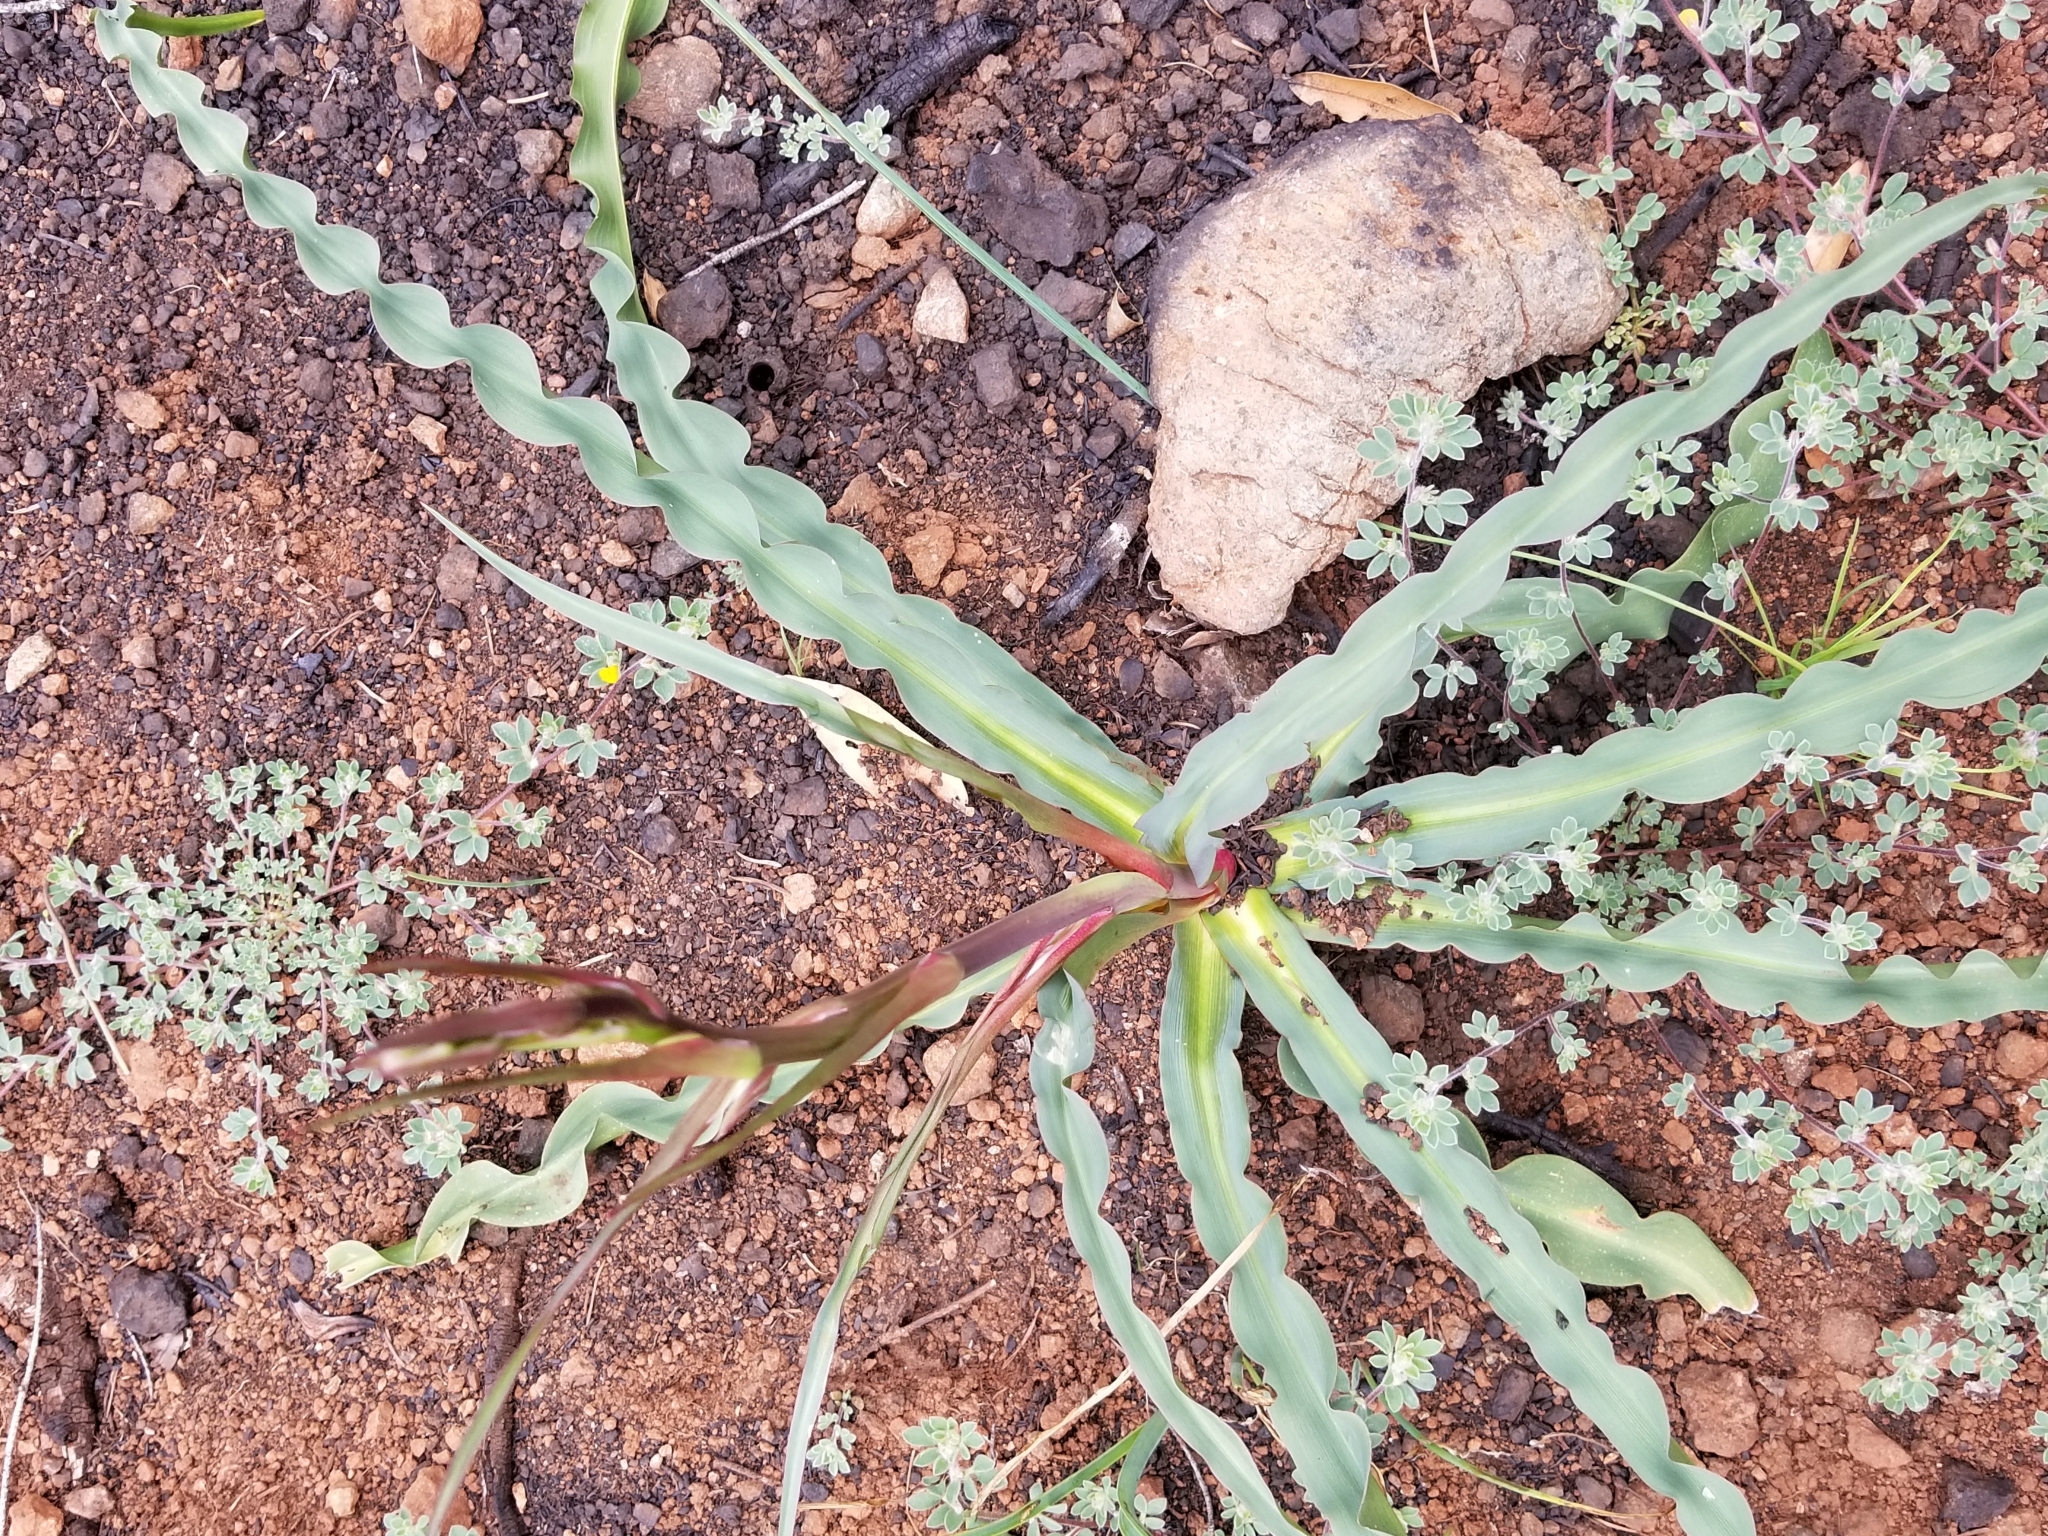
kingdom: Plantae
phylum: Tracheophyta
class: Liliopsida
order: Asparagales
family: Asparagaceae
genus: Chlorogalum
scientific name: Chlorogalum pomeridianum
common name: Amole
